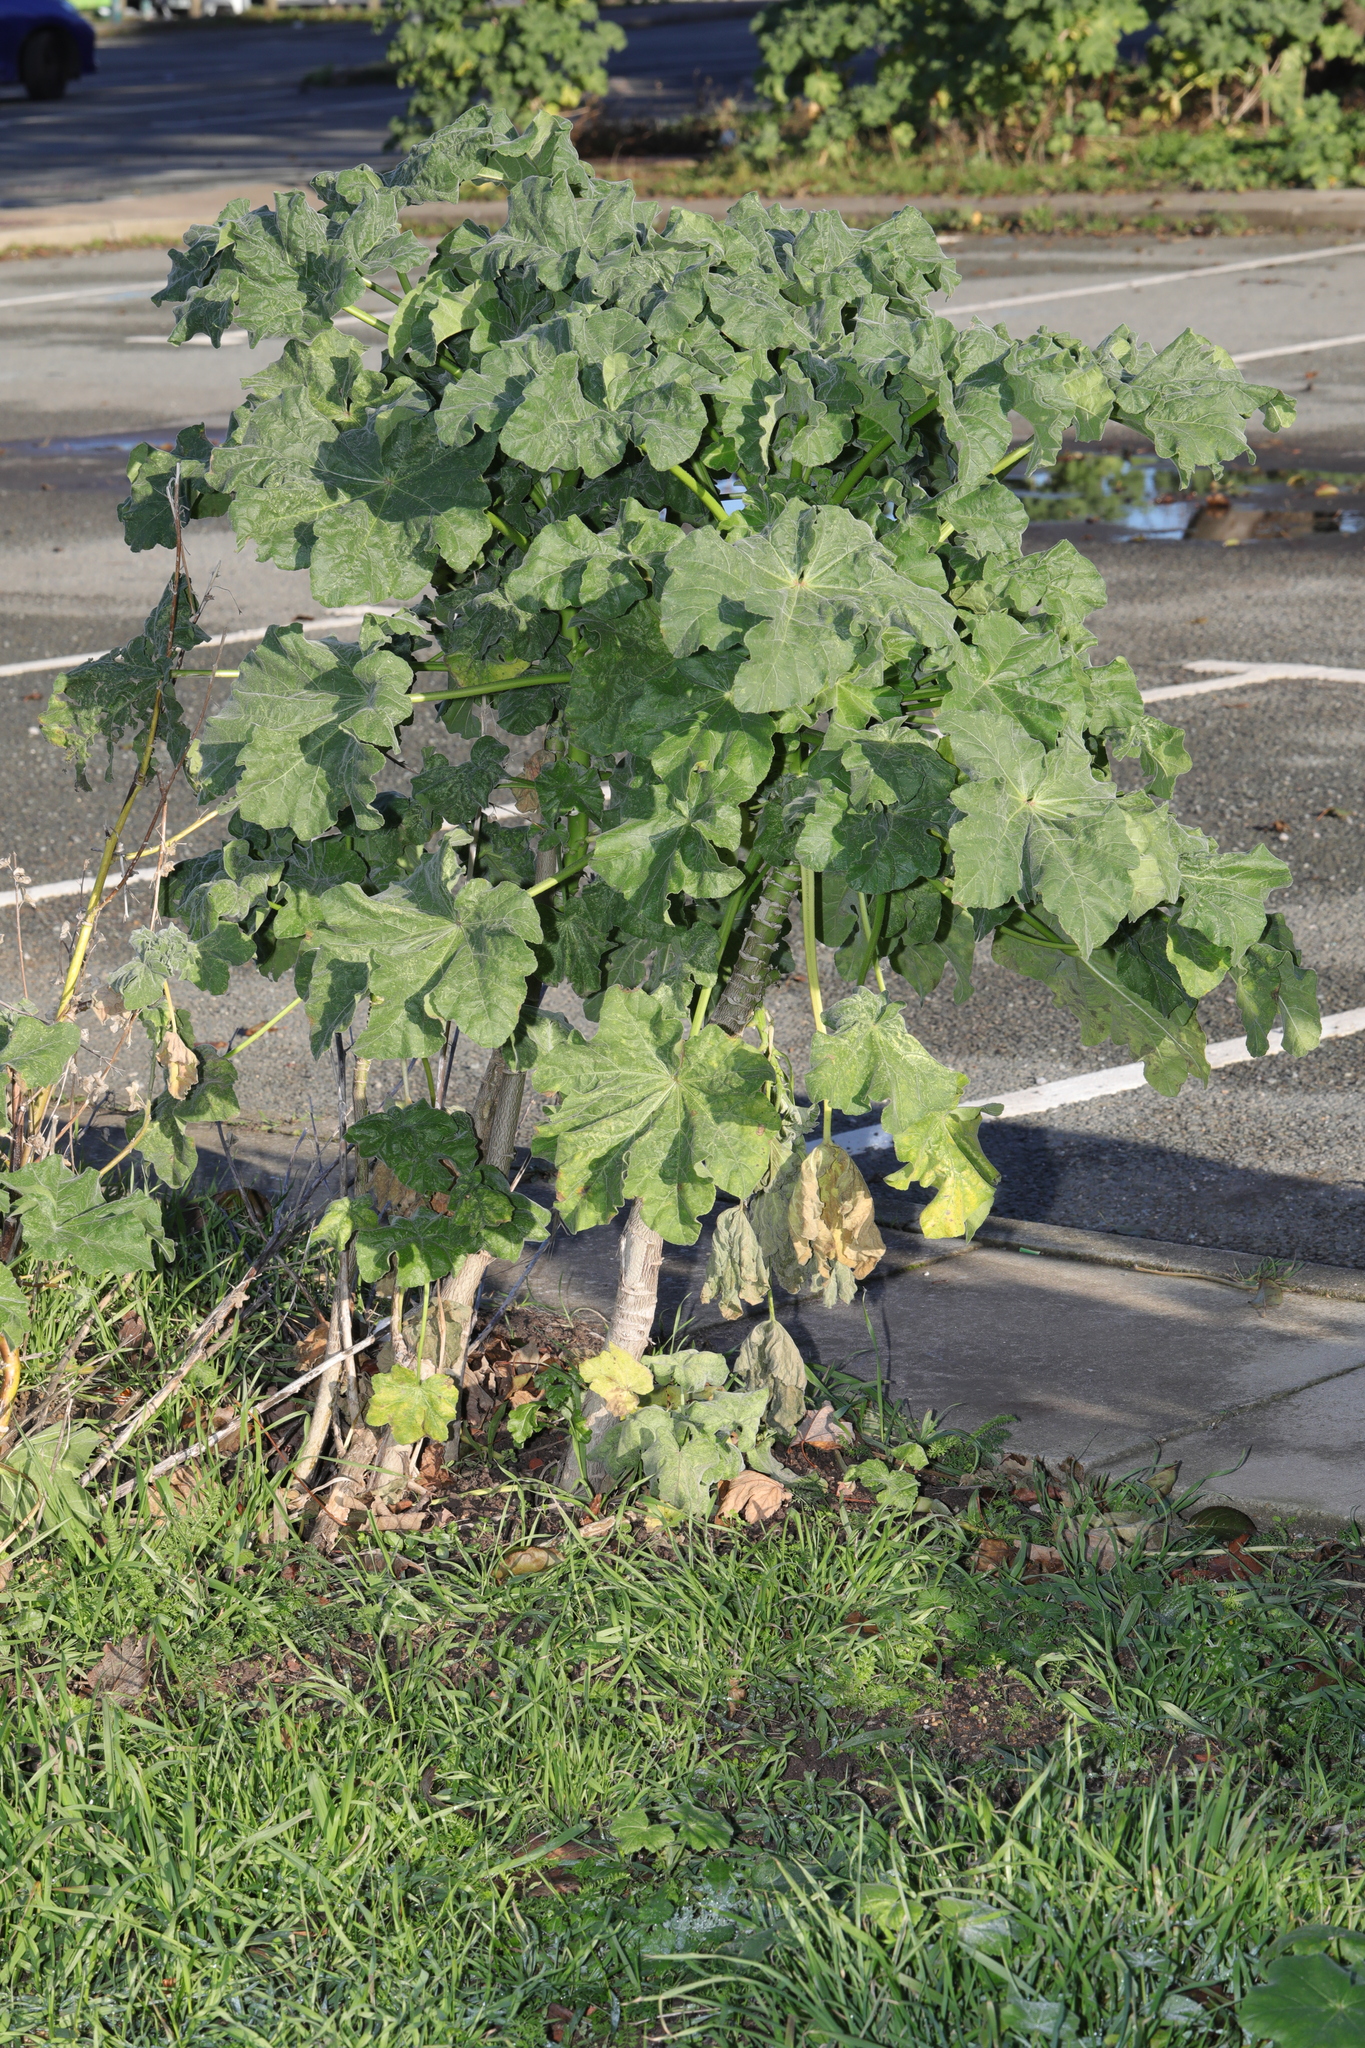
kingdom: Plantae
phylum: Tracheophyta
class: Magnoliopsida
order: Malvales
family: Malvaceae
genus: Malva
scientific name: Malva arborea
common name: Tree mallow
